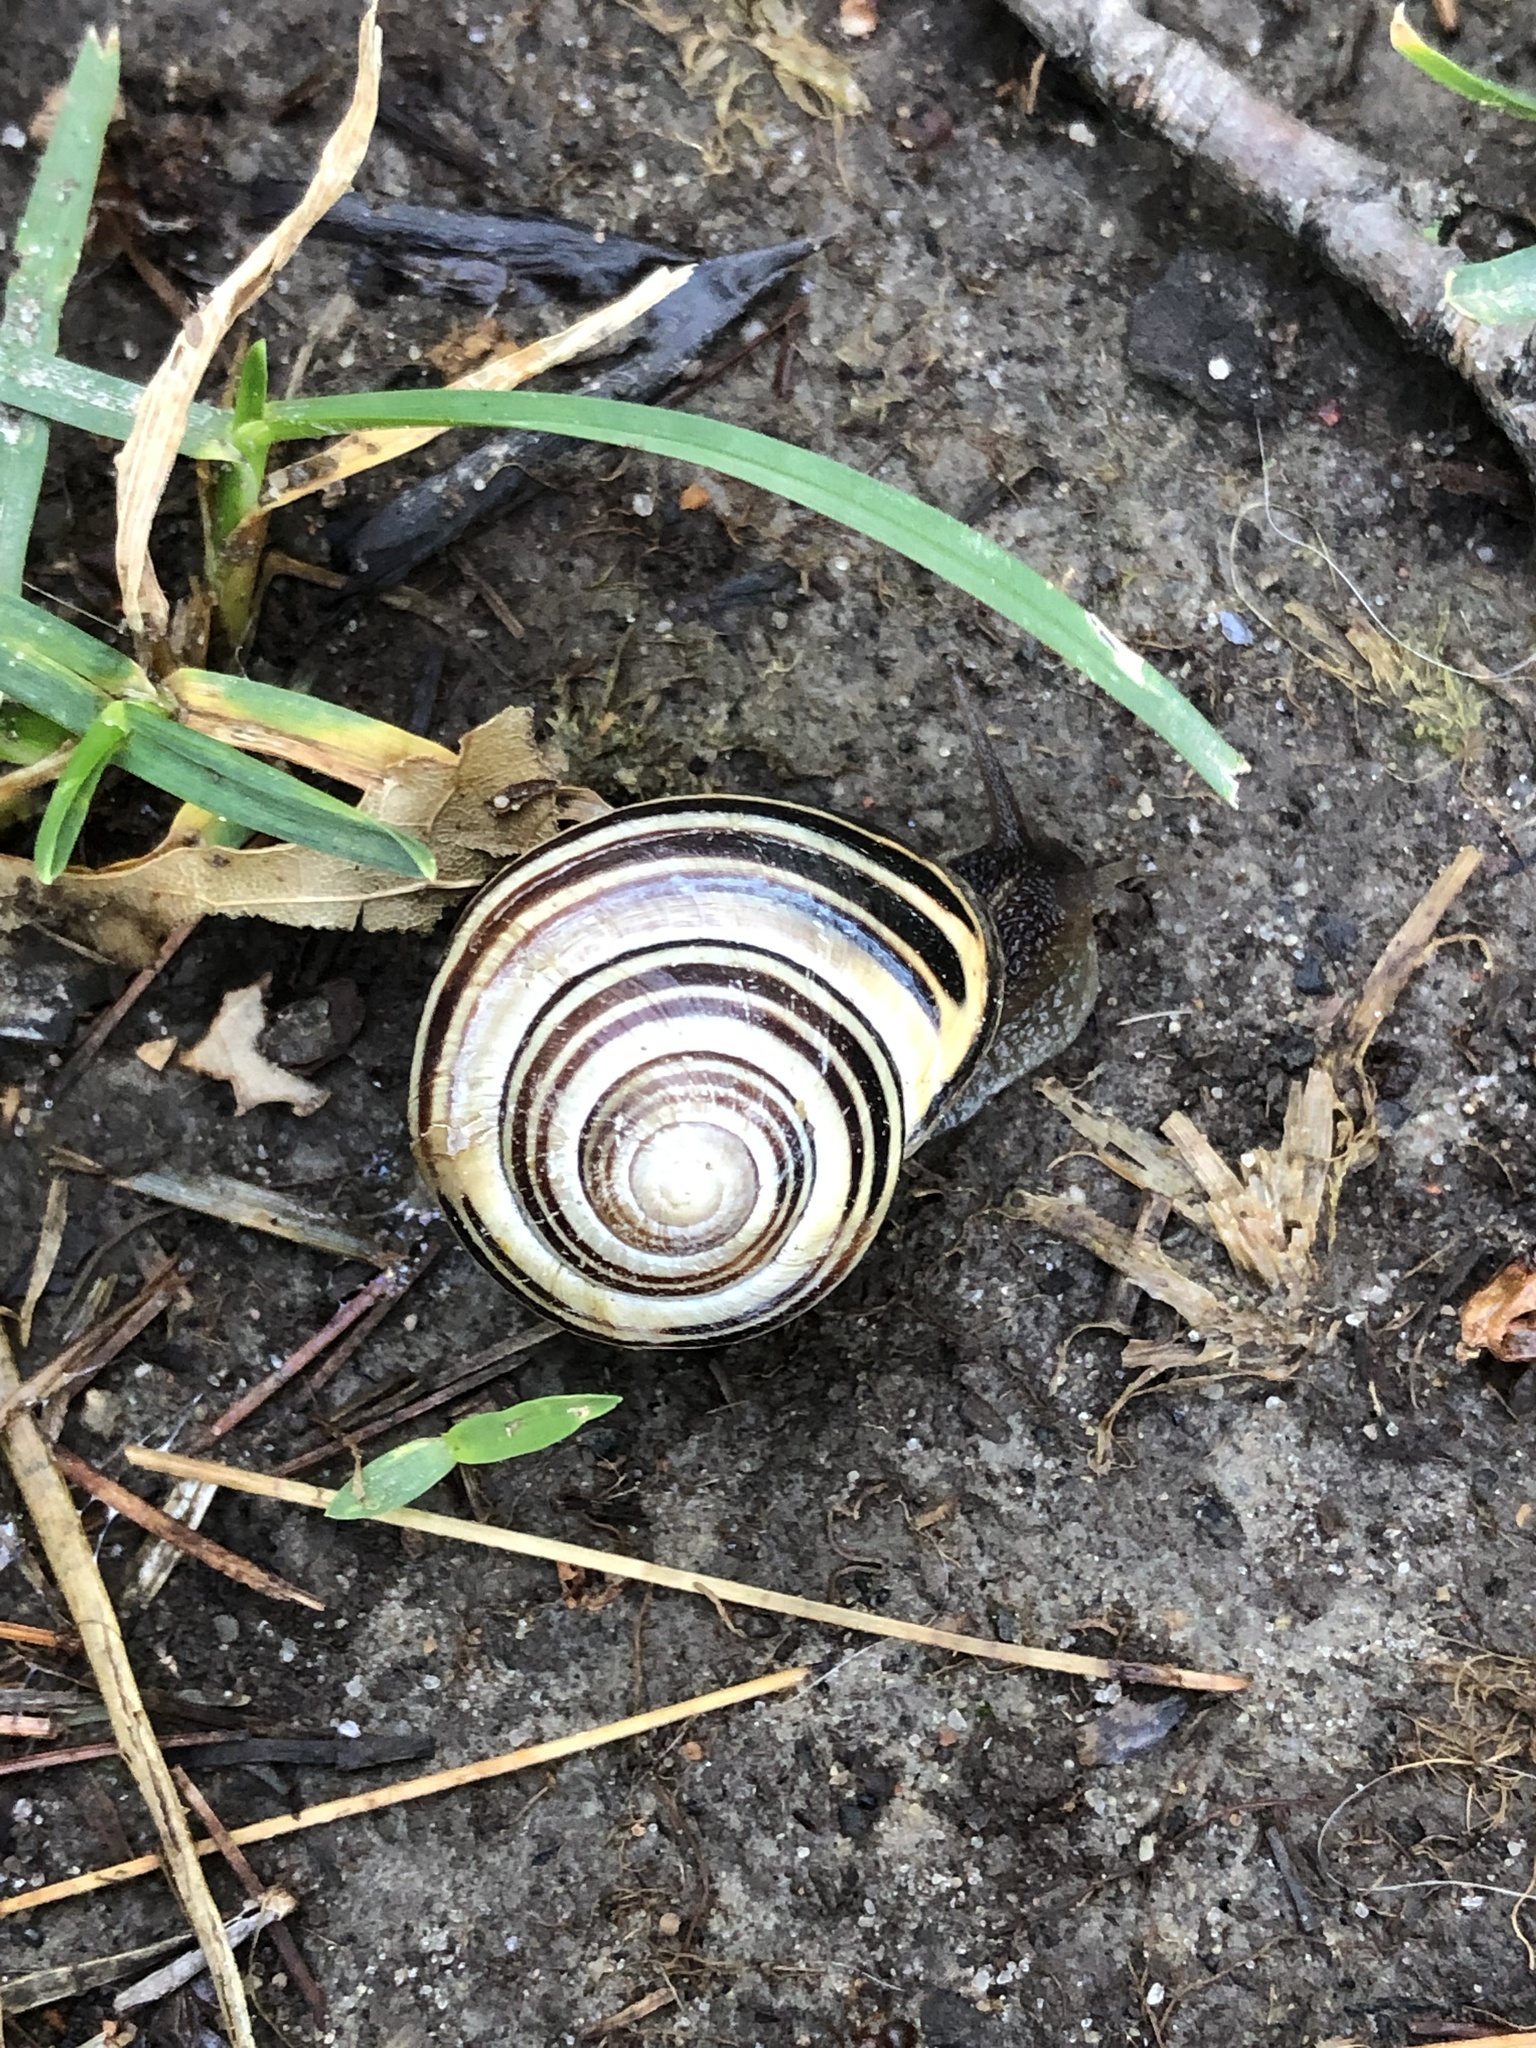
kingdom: Animalia
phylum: Mollusca
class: Gastropoda
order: Stylommatophora
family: Helicidae
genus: Cepaea
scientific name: Cepaea nemoralis
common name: Grovesnail
